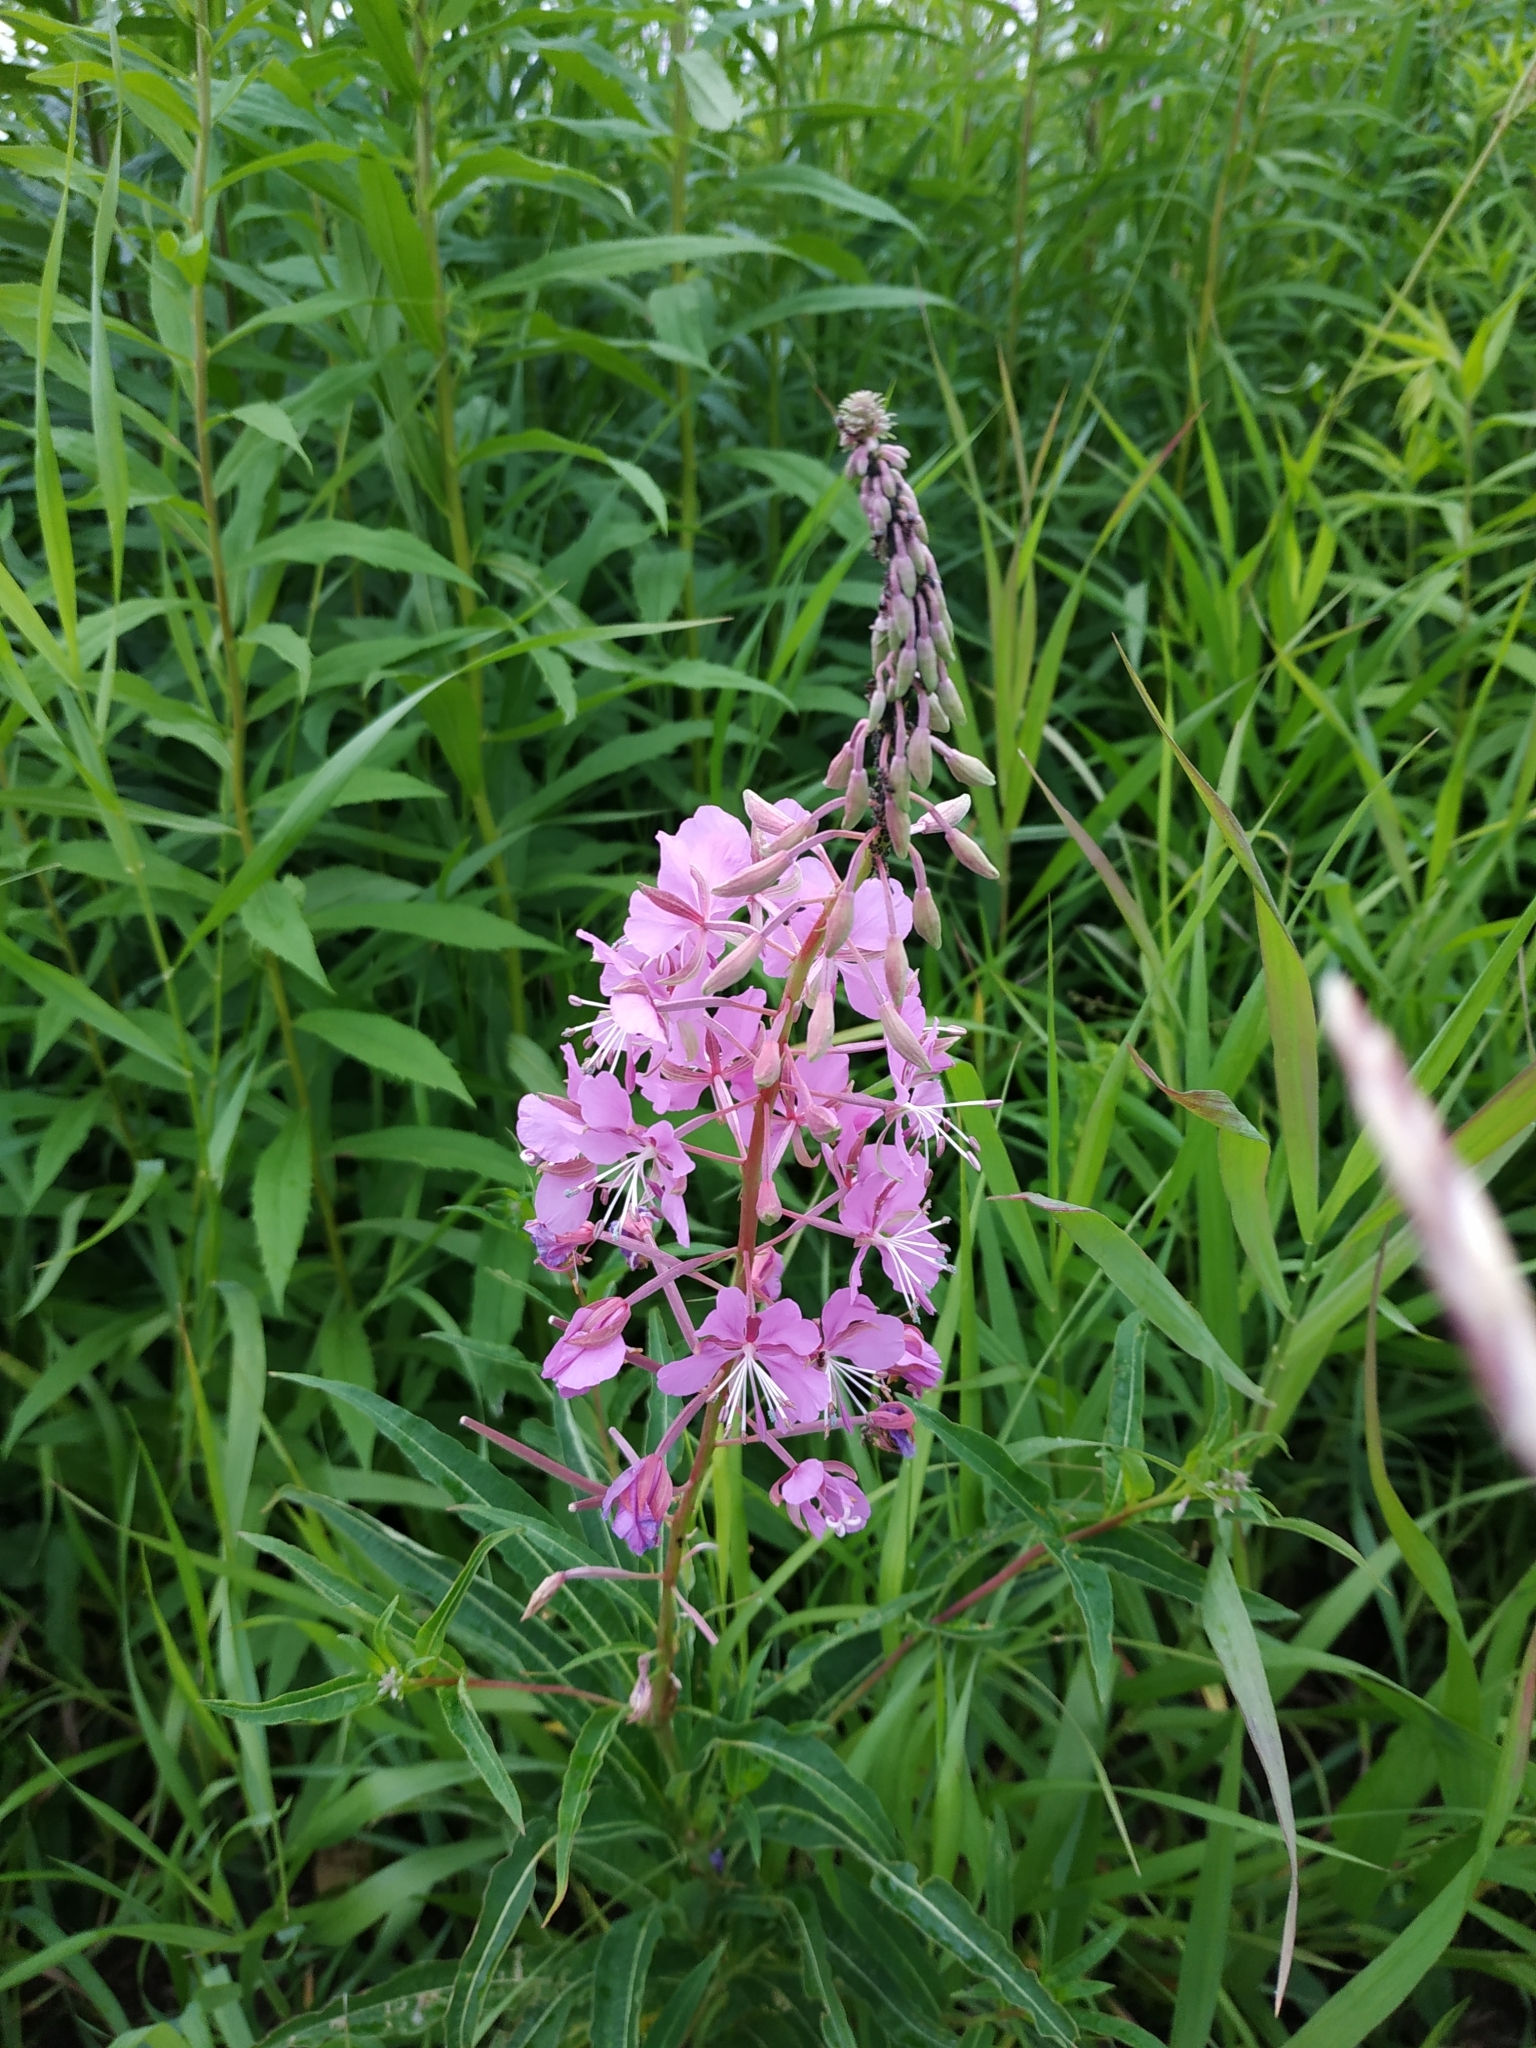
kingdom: Plantae
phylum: Tracheophyta
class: Magnoliopsida
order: Myrtales
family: Onagraceae
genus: Chamaenerion
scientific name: Chamaenerion angustifolium
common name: Fireweed
